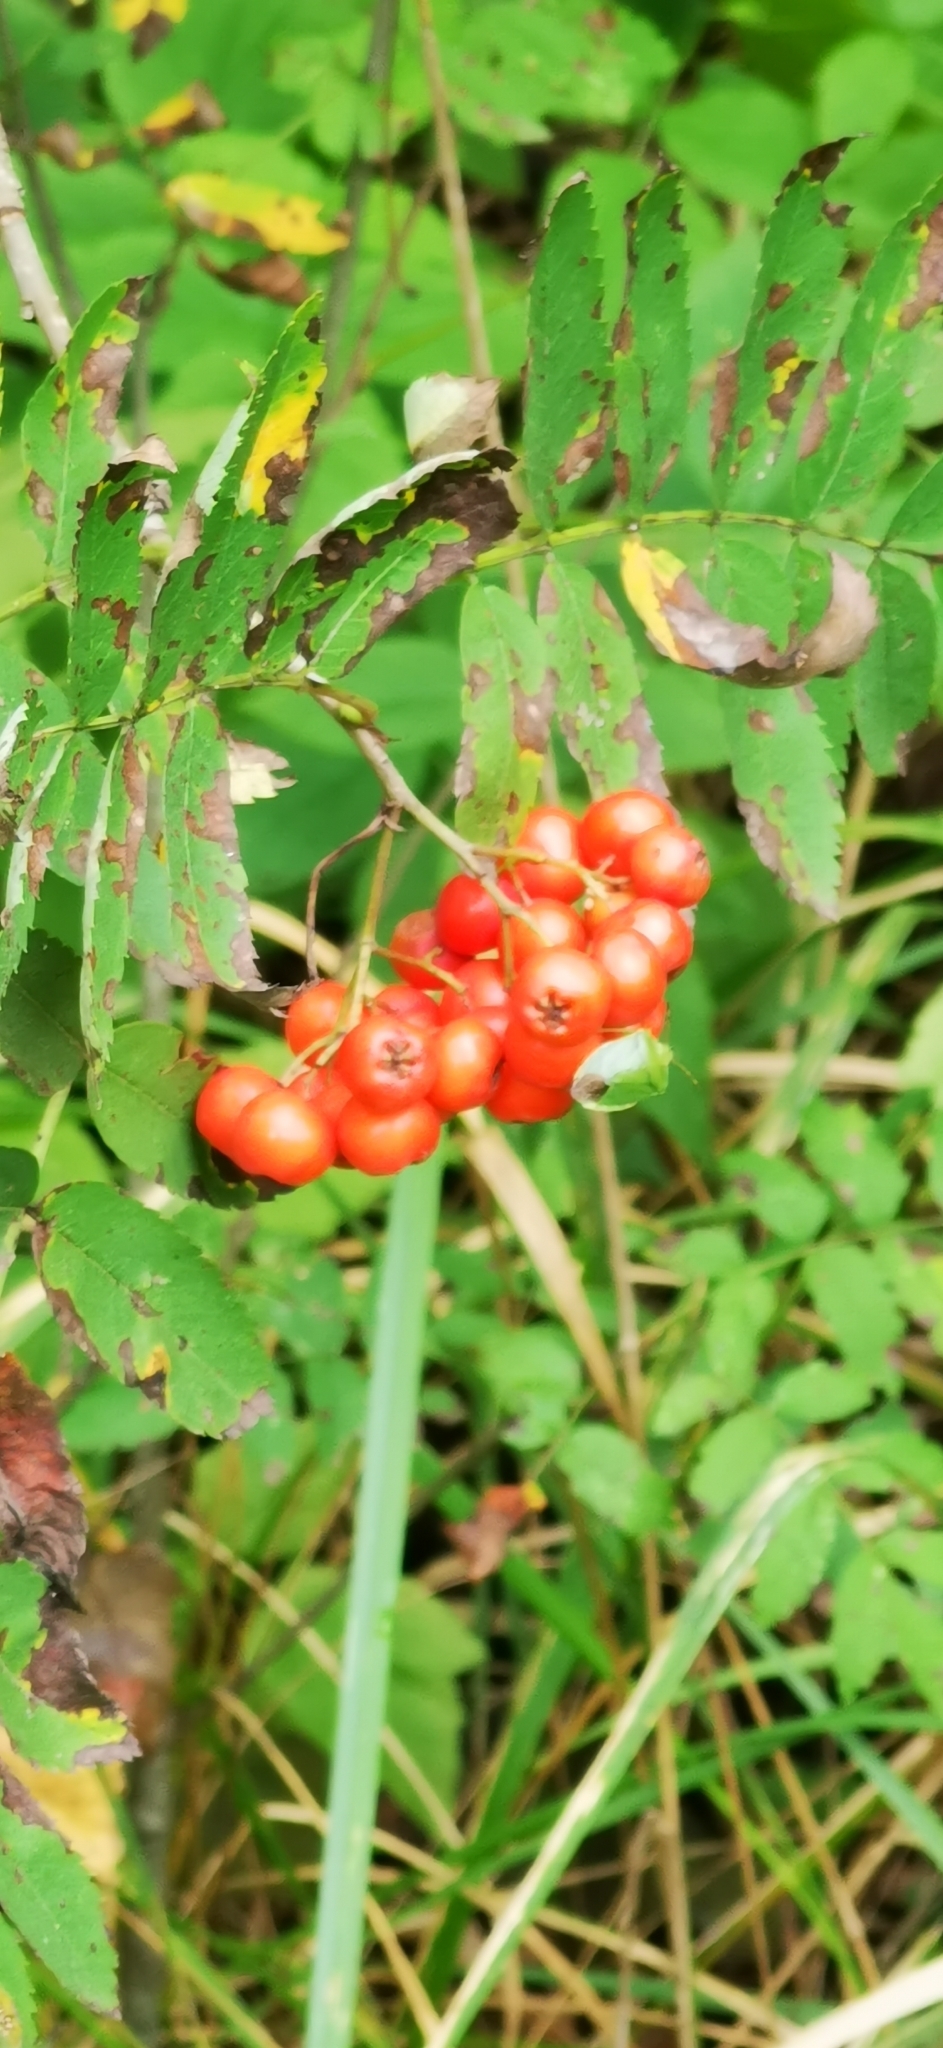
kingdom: Plantae
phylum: Tracheophyta
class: Magnoliopsida
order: Rosales
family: Rosaceae
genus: Sorbus
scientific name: Sorbus aucuparia
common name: Rowan
